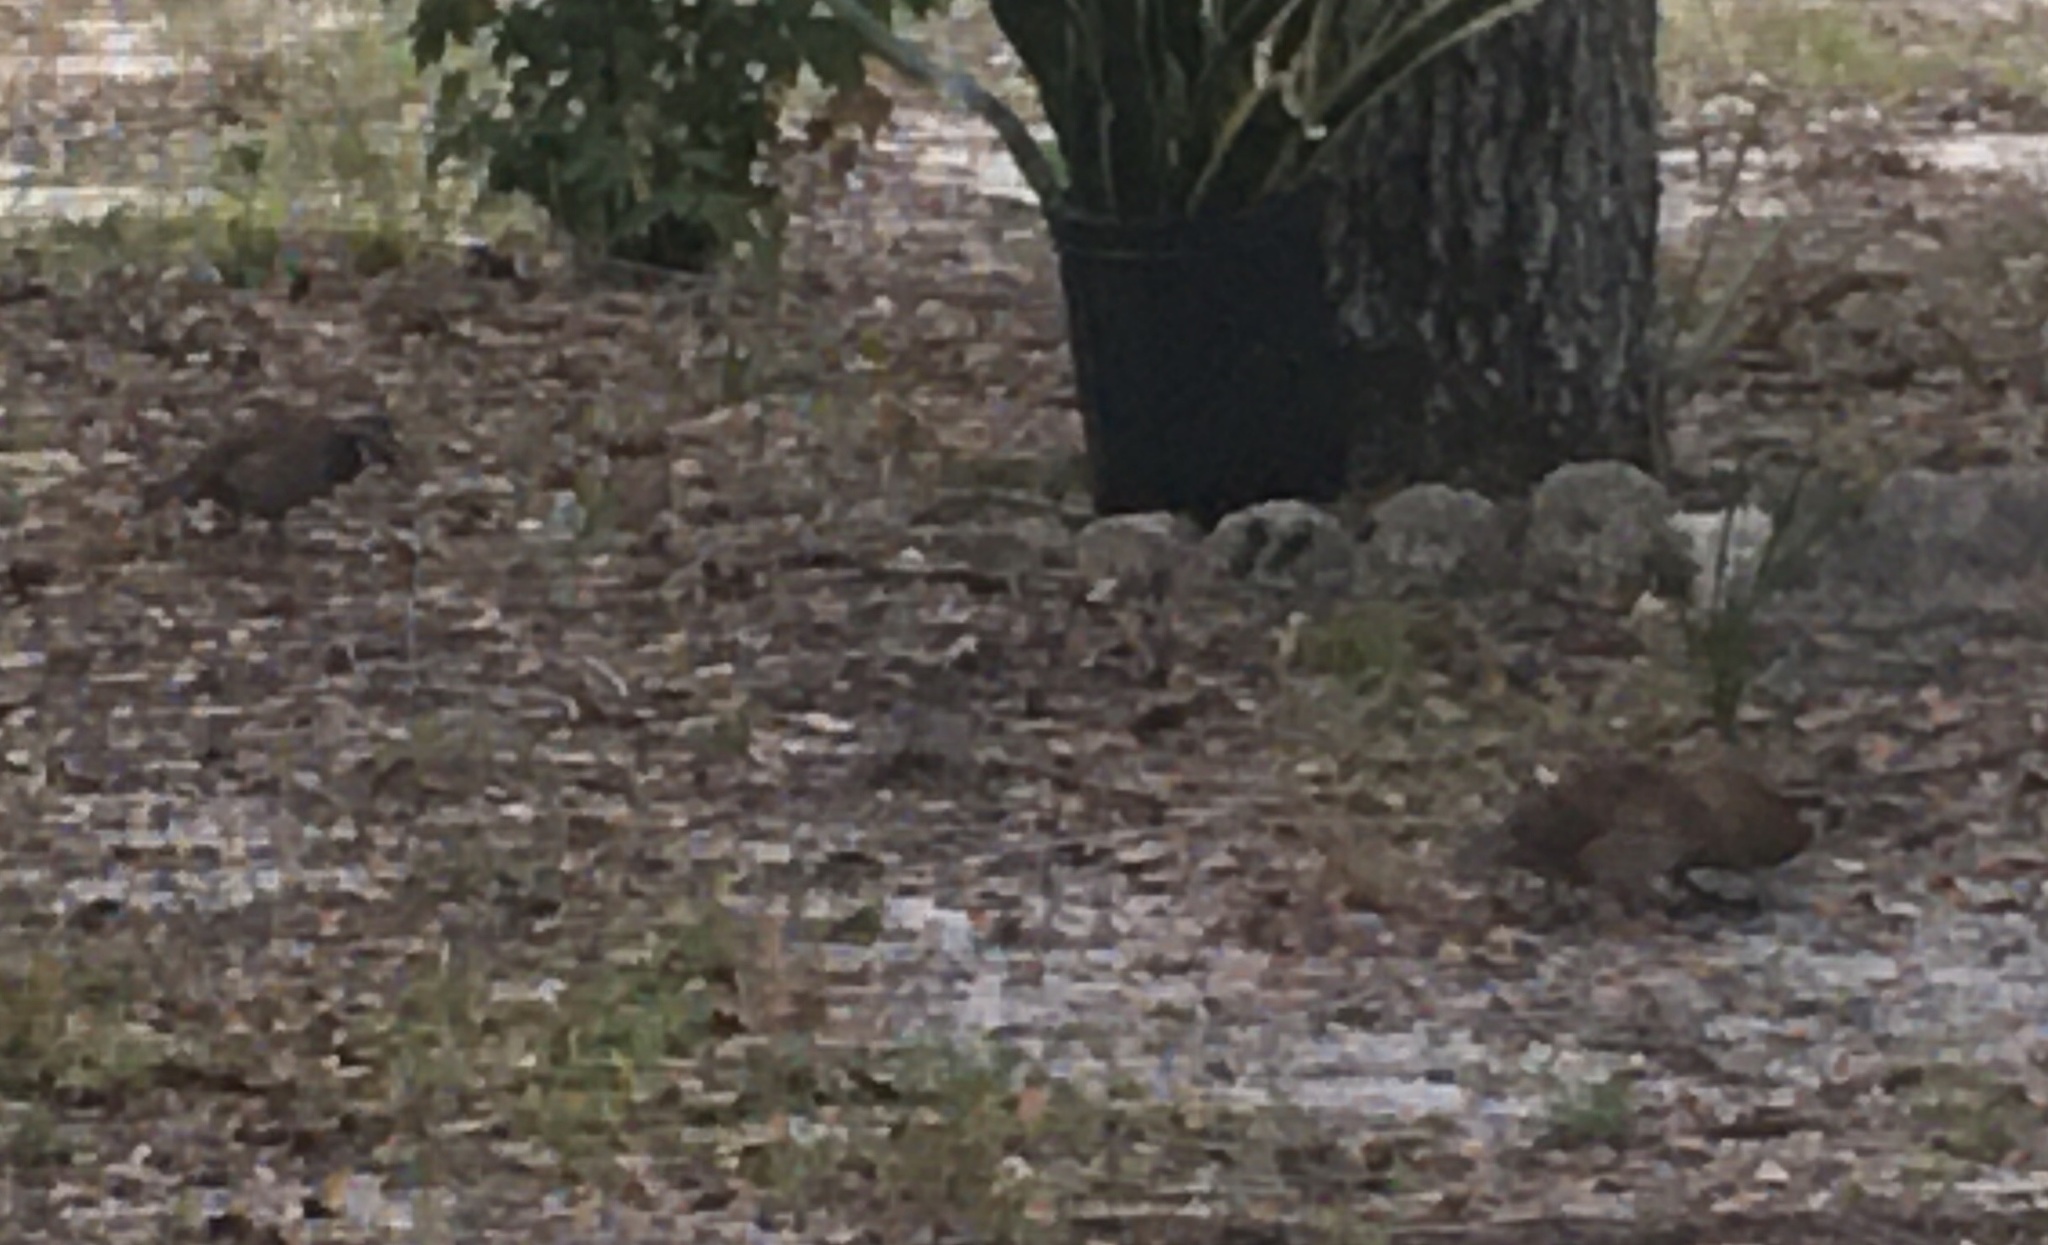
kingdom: Animalia
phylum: Chordata
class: Aves
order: Galliformes
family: Odontophoridae
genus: Colinus
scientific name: Colinus virginianus
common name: Northern bobwhite
